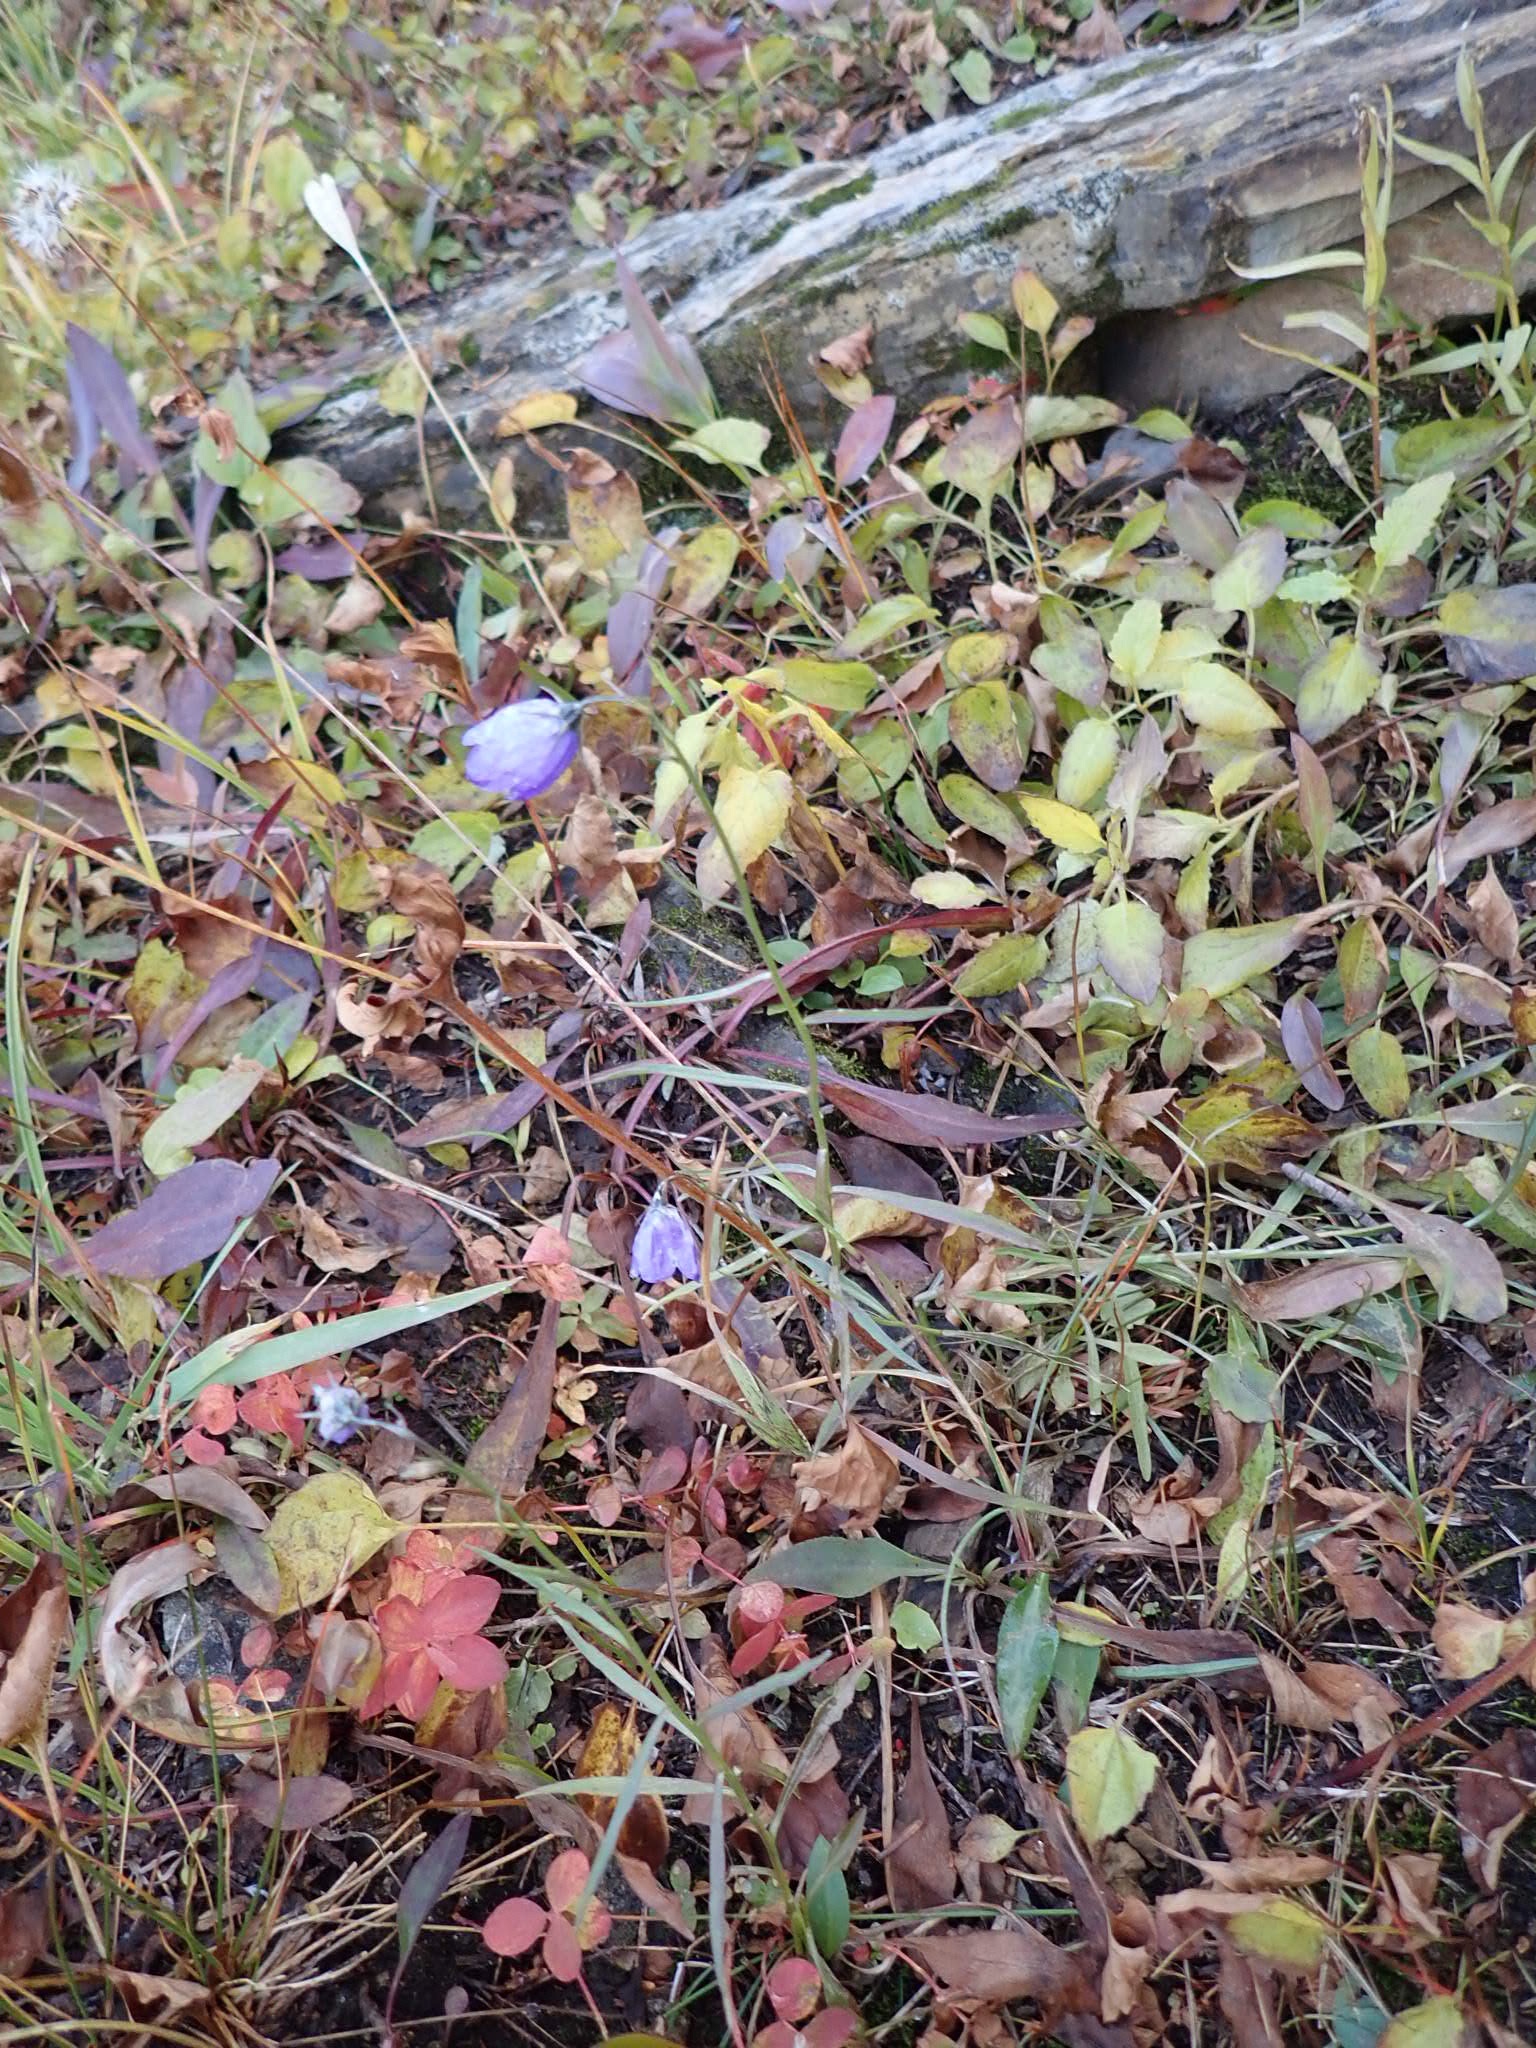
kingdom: Plantae
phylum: Tracheophyta
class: Magnoliopsida
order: Asterales
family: Campanulaceae
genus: Campanula
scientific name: Campanula petiolata
